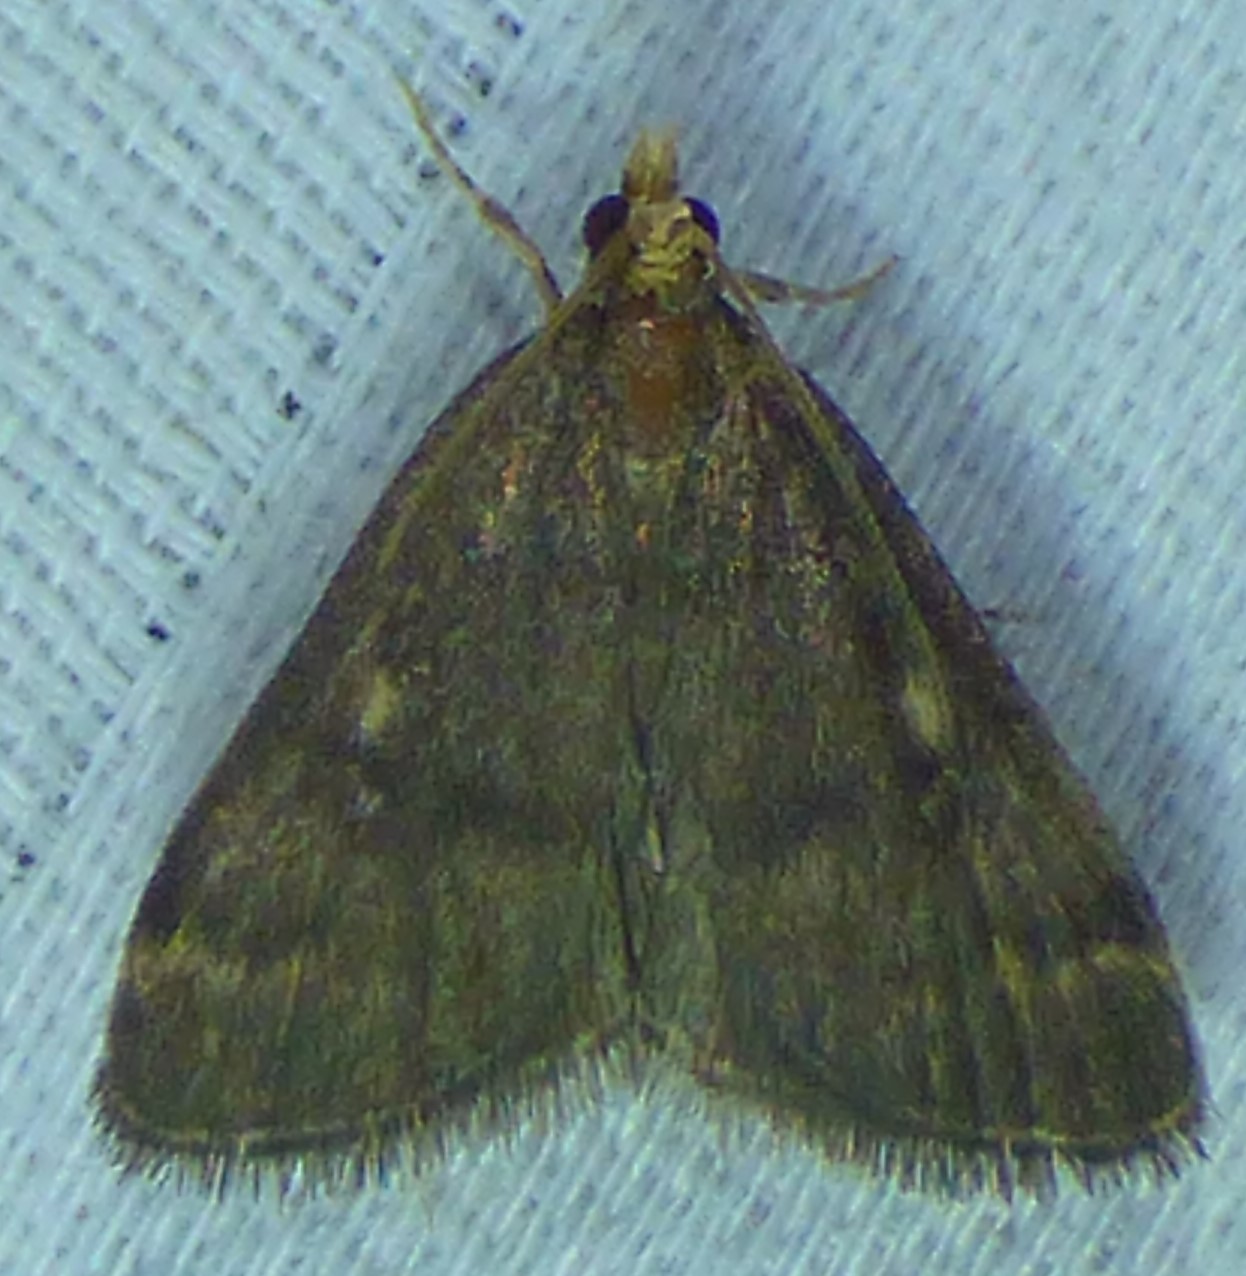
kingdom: Animalia
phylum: Arthropoda
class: Insecta
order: Lepidoptera
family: Crambidae
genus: Pyrausta
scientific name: Pyrausta merrickalis
